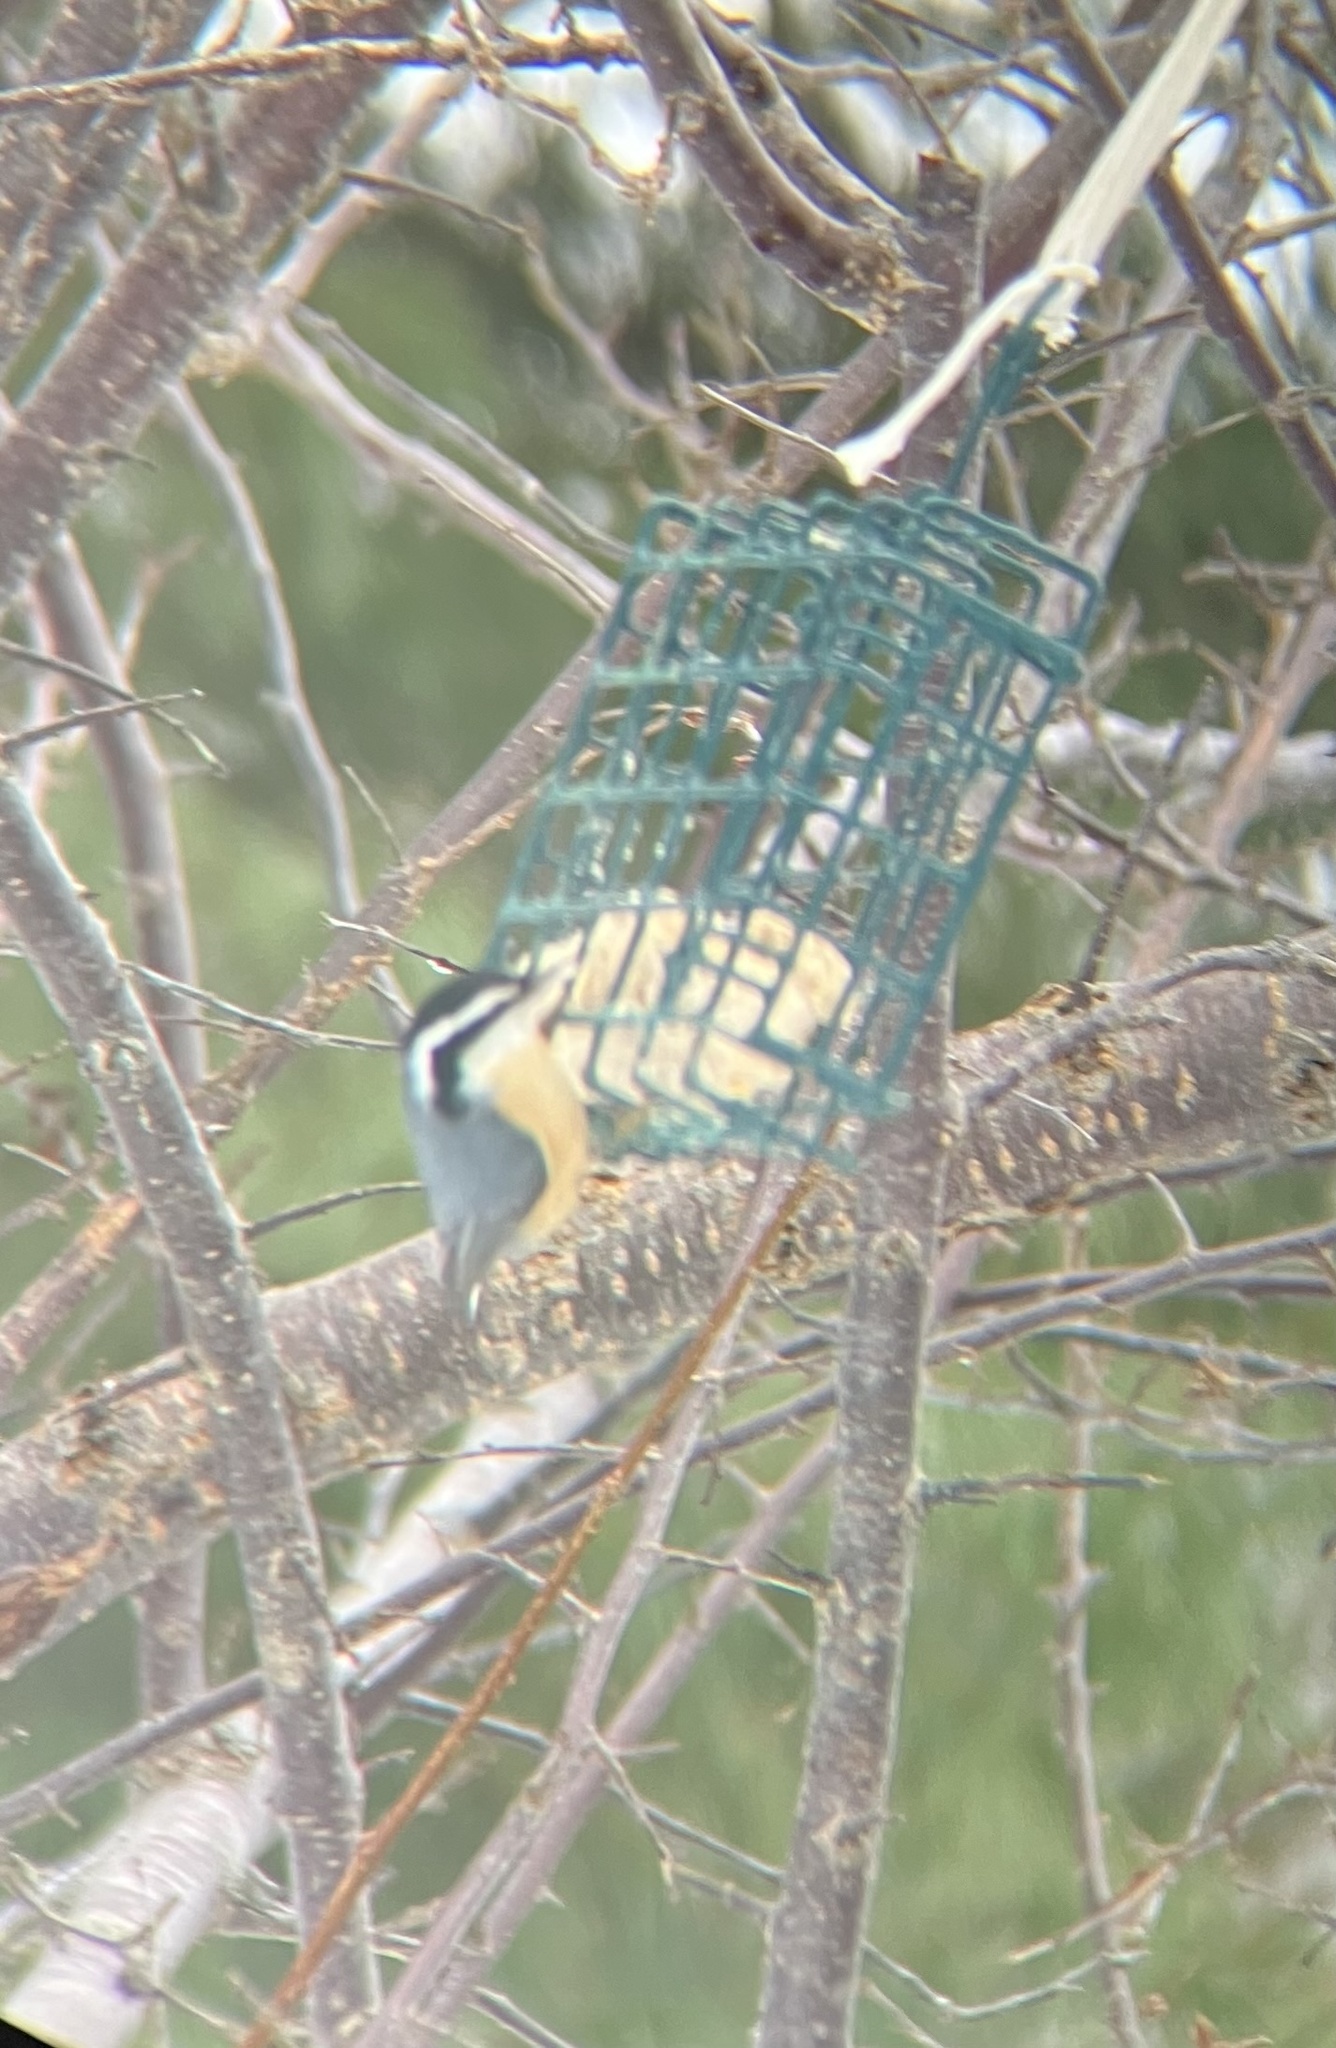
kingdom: Animalia
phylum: Chordata
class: Aves
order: Passeriformes
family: Sittidae
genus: Sitta
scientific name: Sitta canadensis
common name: Red-breasted nuthatch
